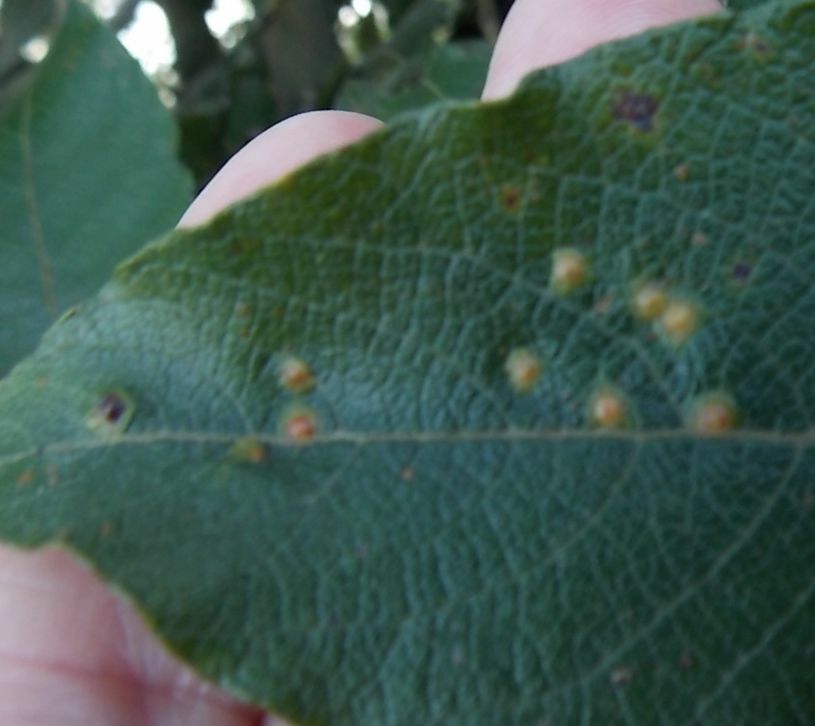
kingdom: Animalia
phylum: Arthropoda
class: Insecta
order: Diptera
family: Cecidomyiidae
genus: Iteomyia
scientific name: Iteomyia capreae
